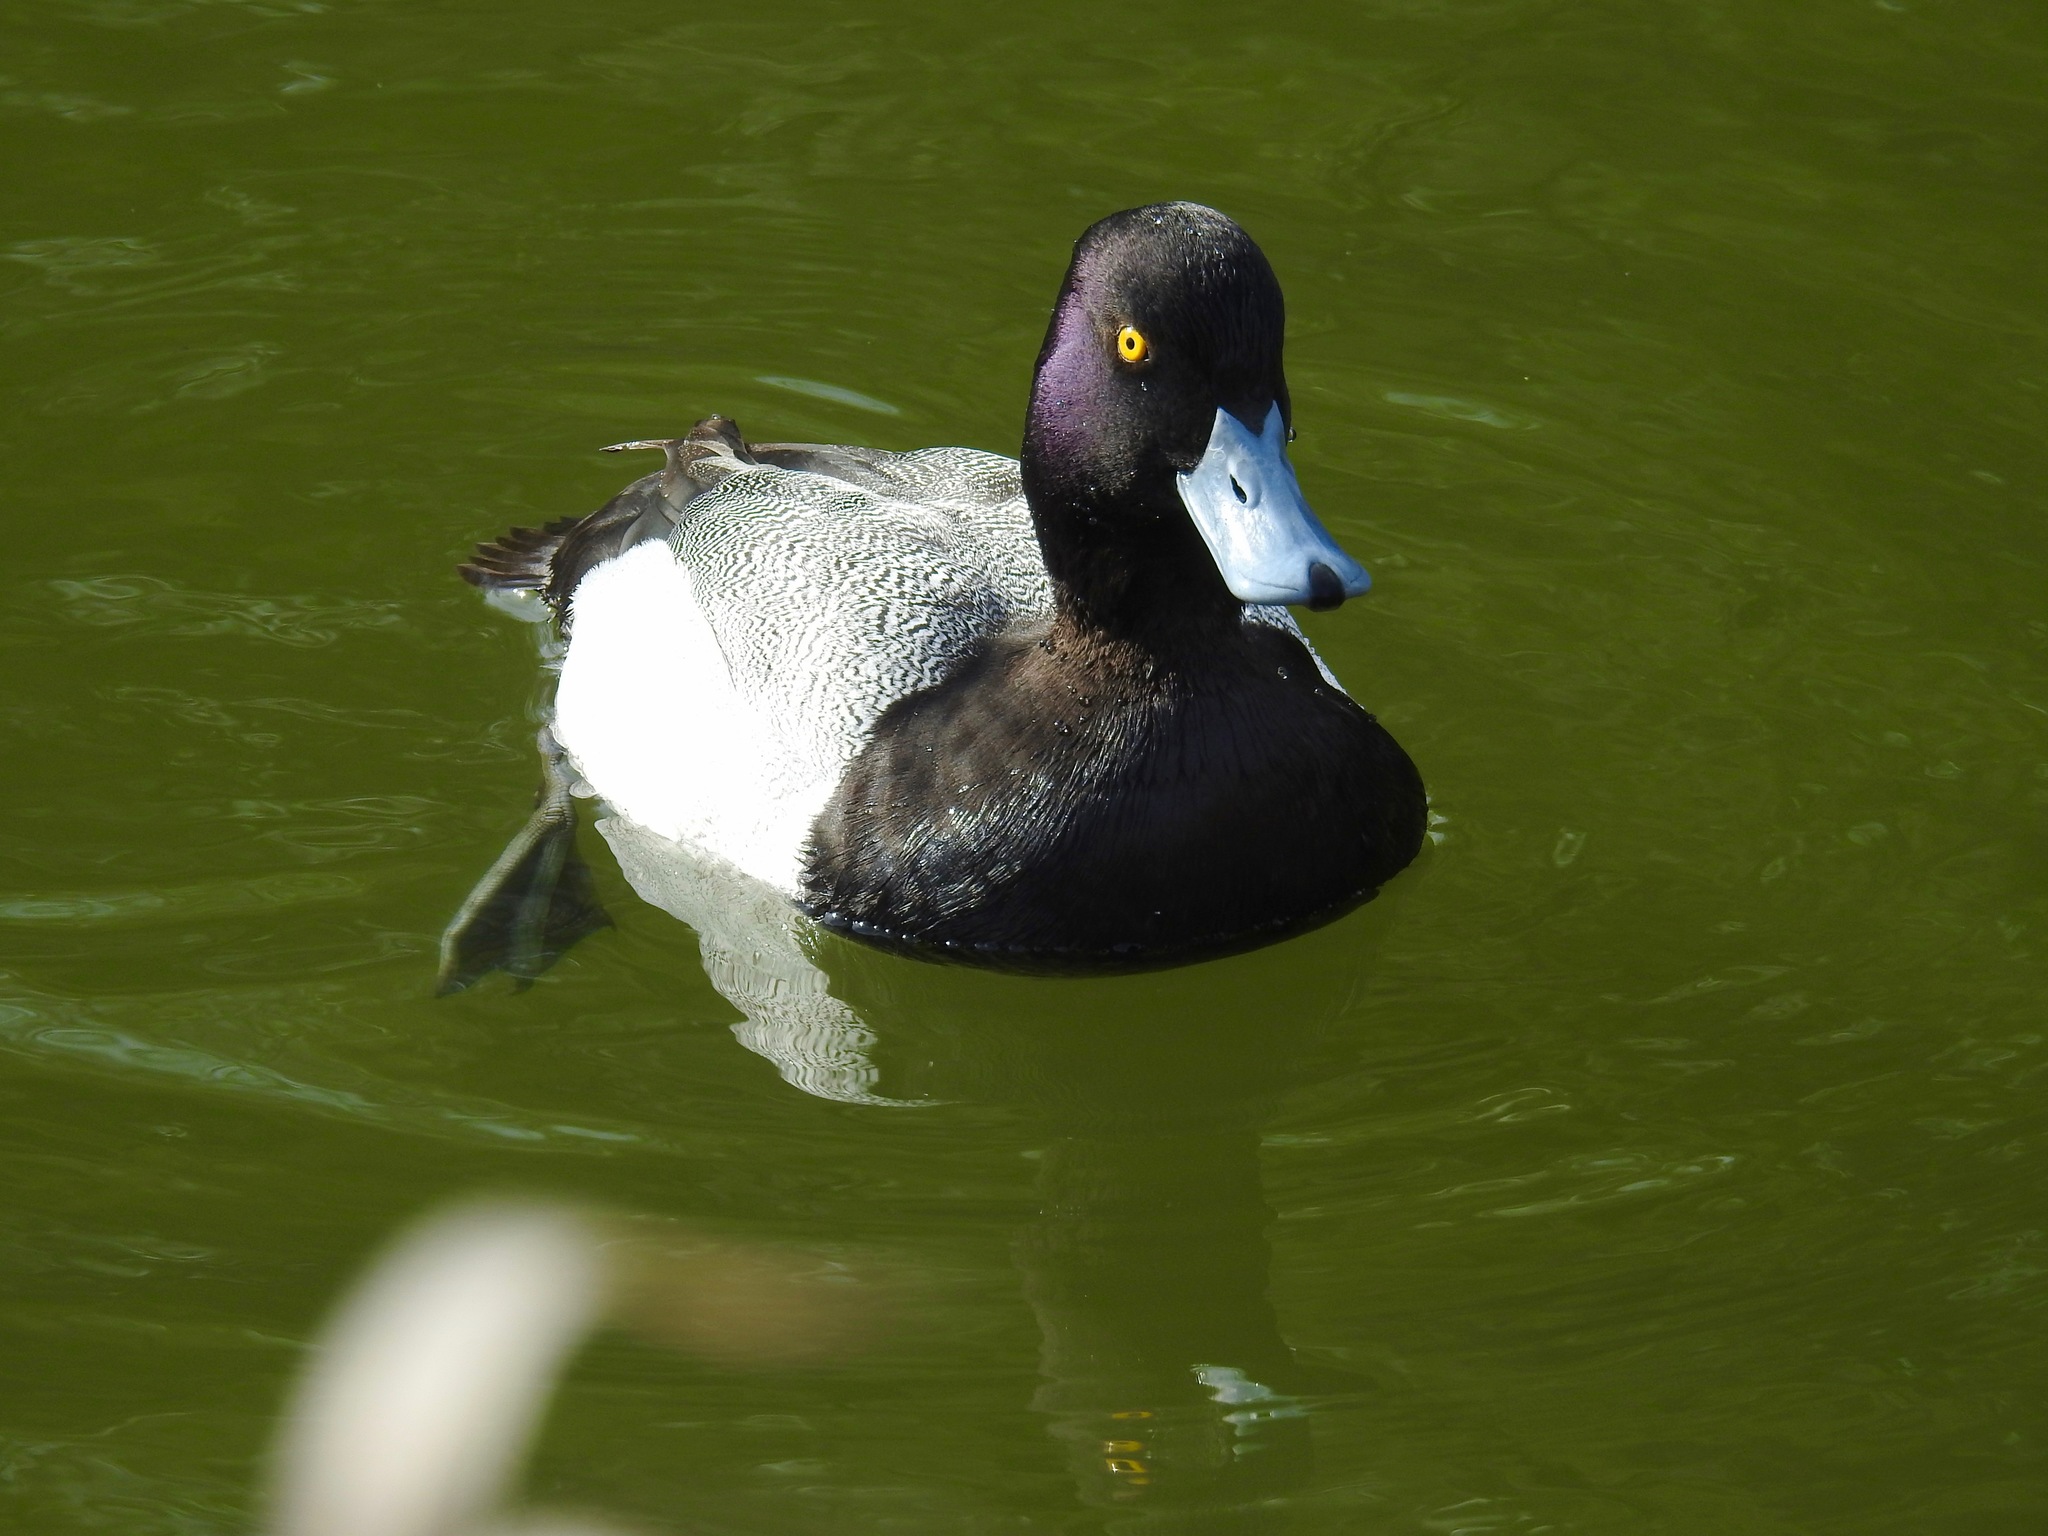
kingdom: Animalia
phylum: Chordata
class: Aves
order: Anseriformes
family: Anatidae
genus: Aythya
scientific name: Aythya affinis
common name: Lesser scaup
